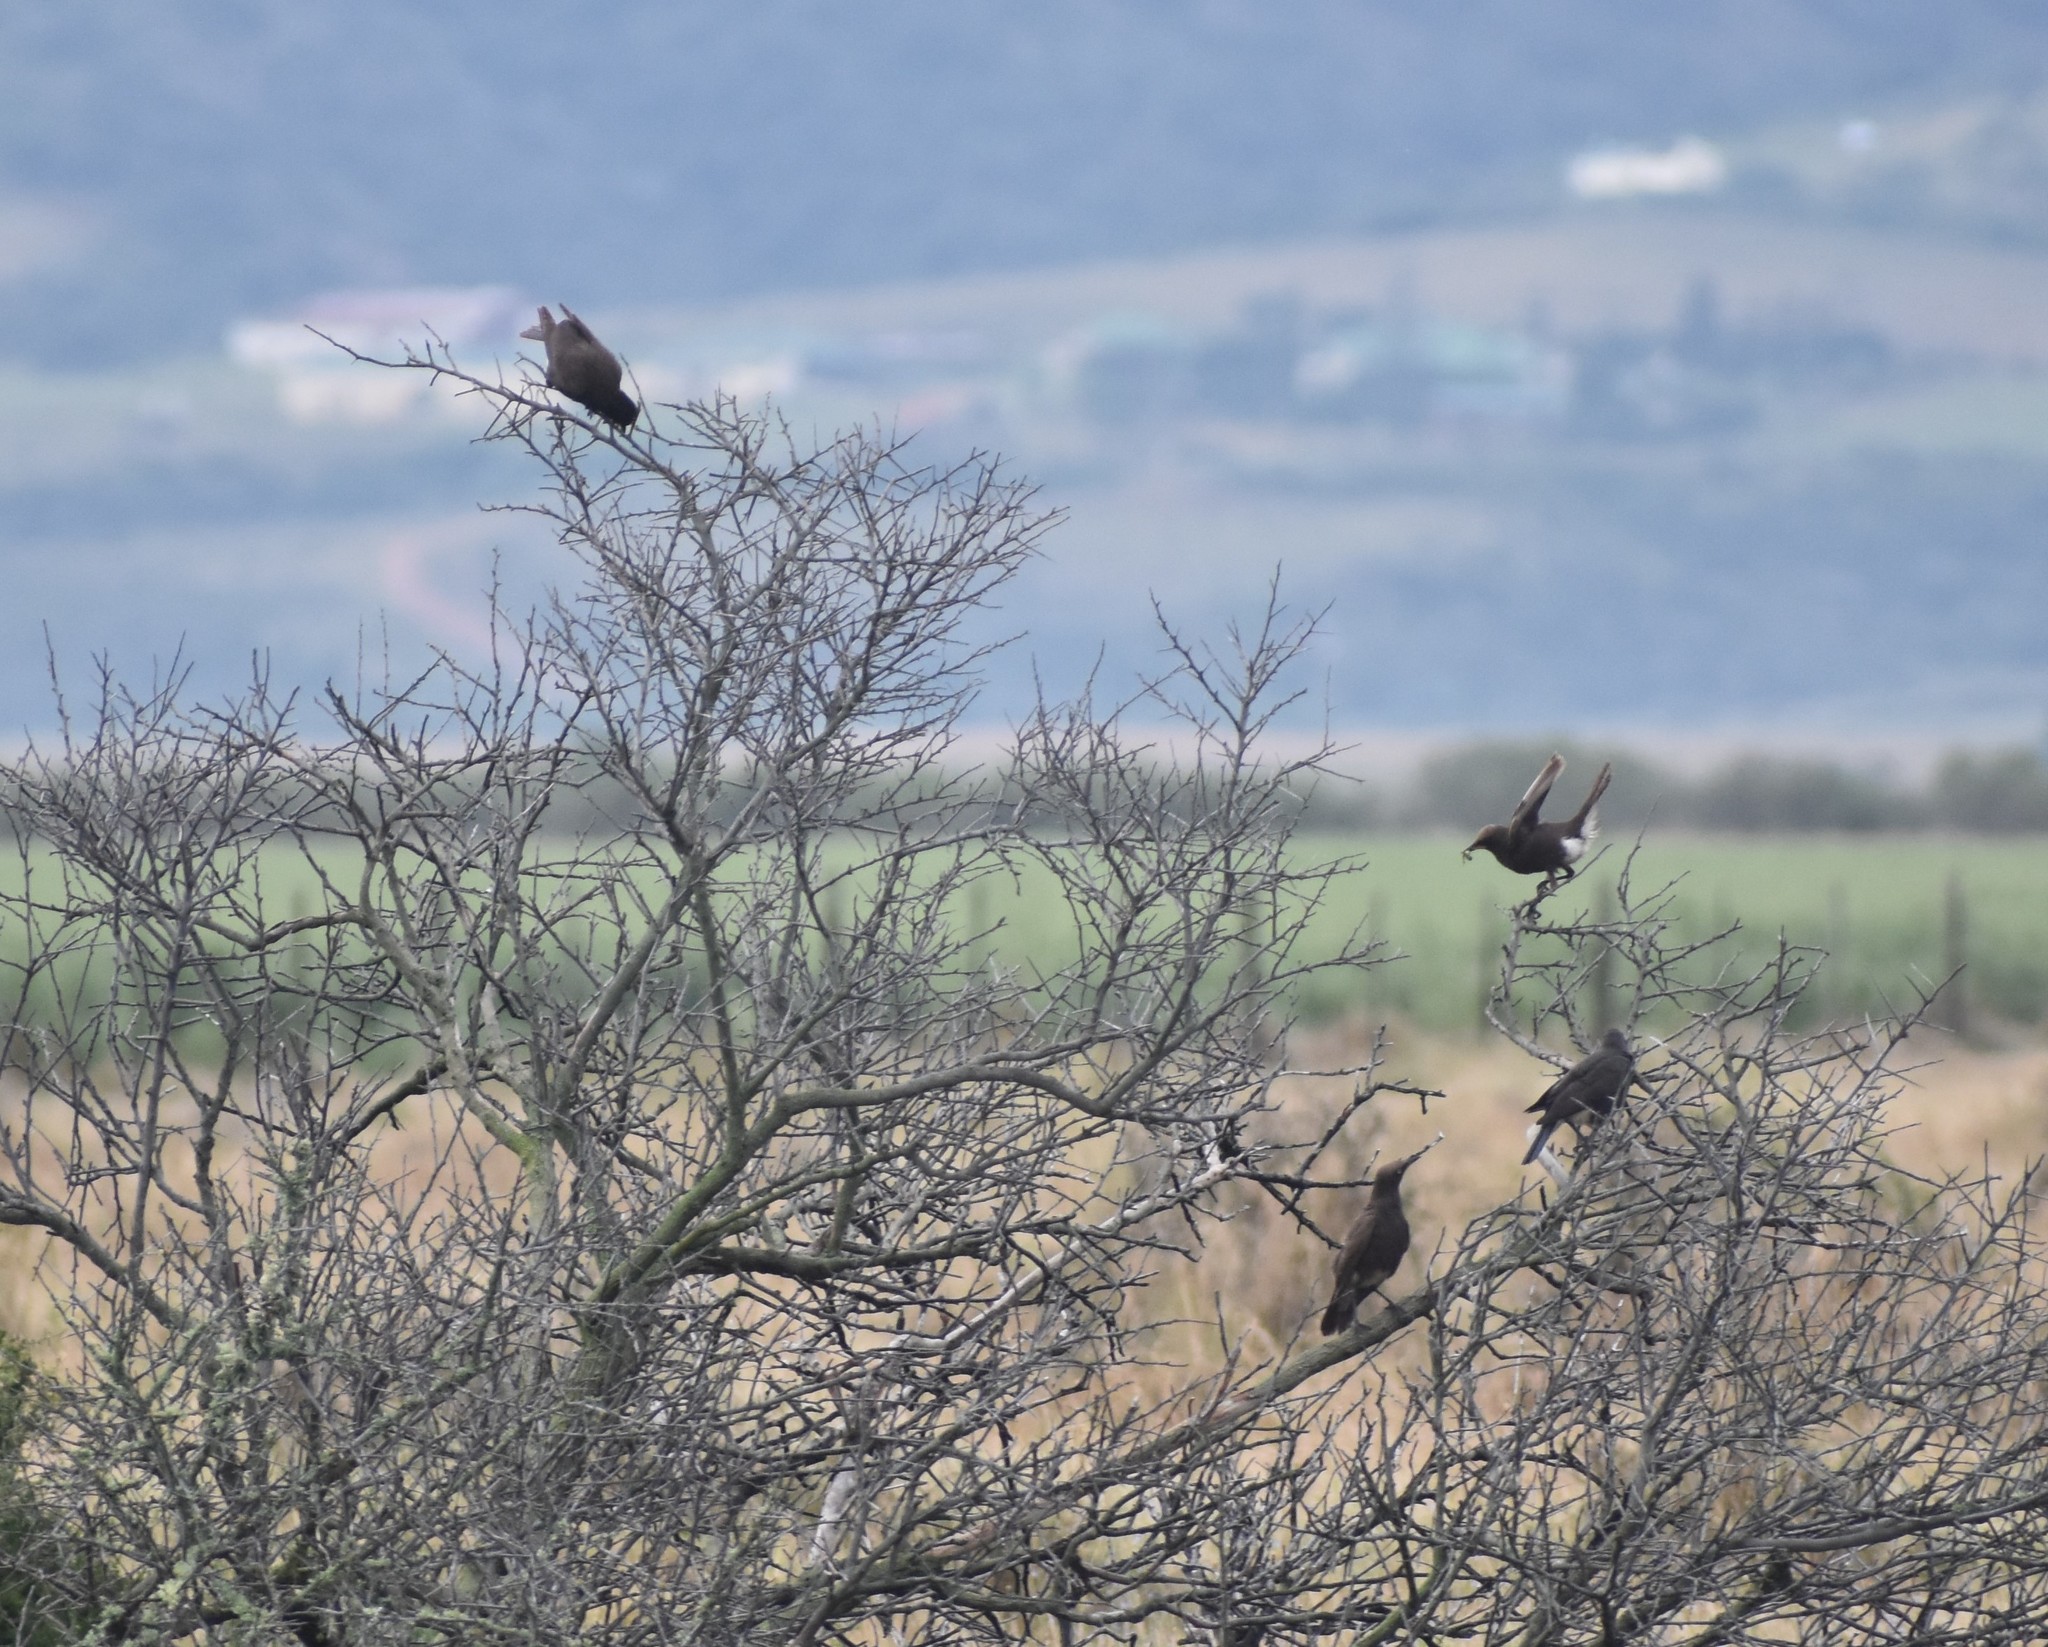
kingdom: Animalia
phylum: Chordata
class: Aves
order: Passeriformes
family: Sturnidae
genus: Lamprotornis
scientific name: Lamprotornis bicolor
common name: Pied starling
